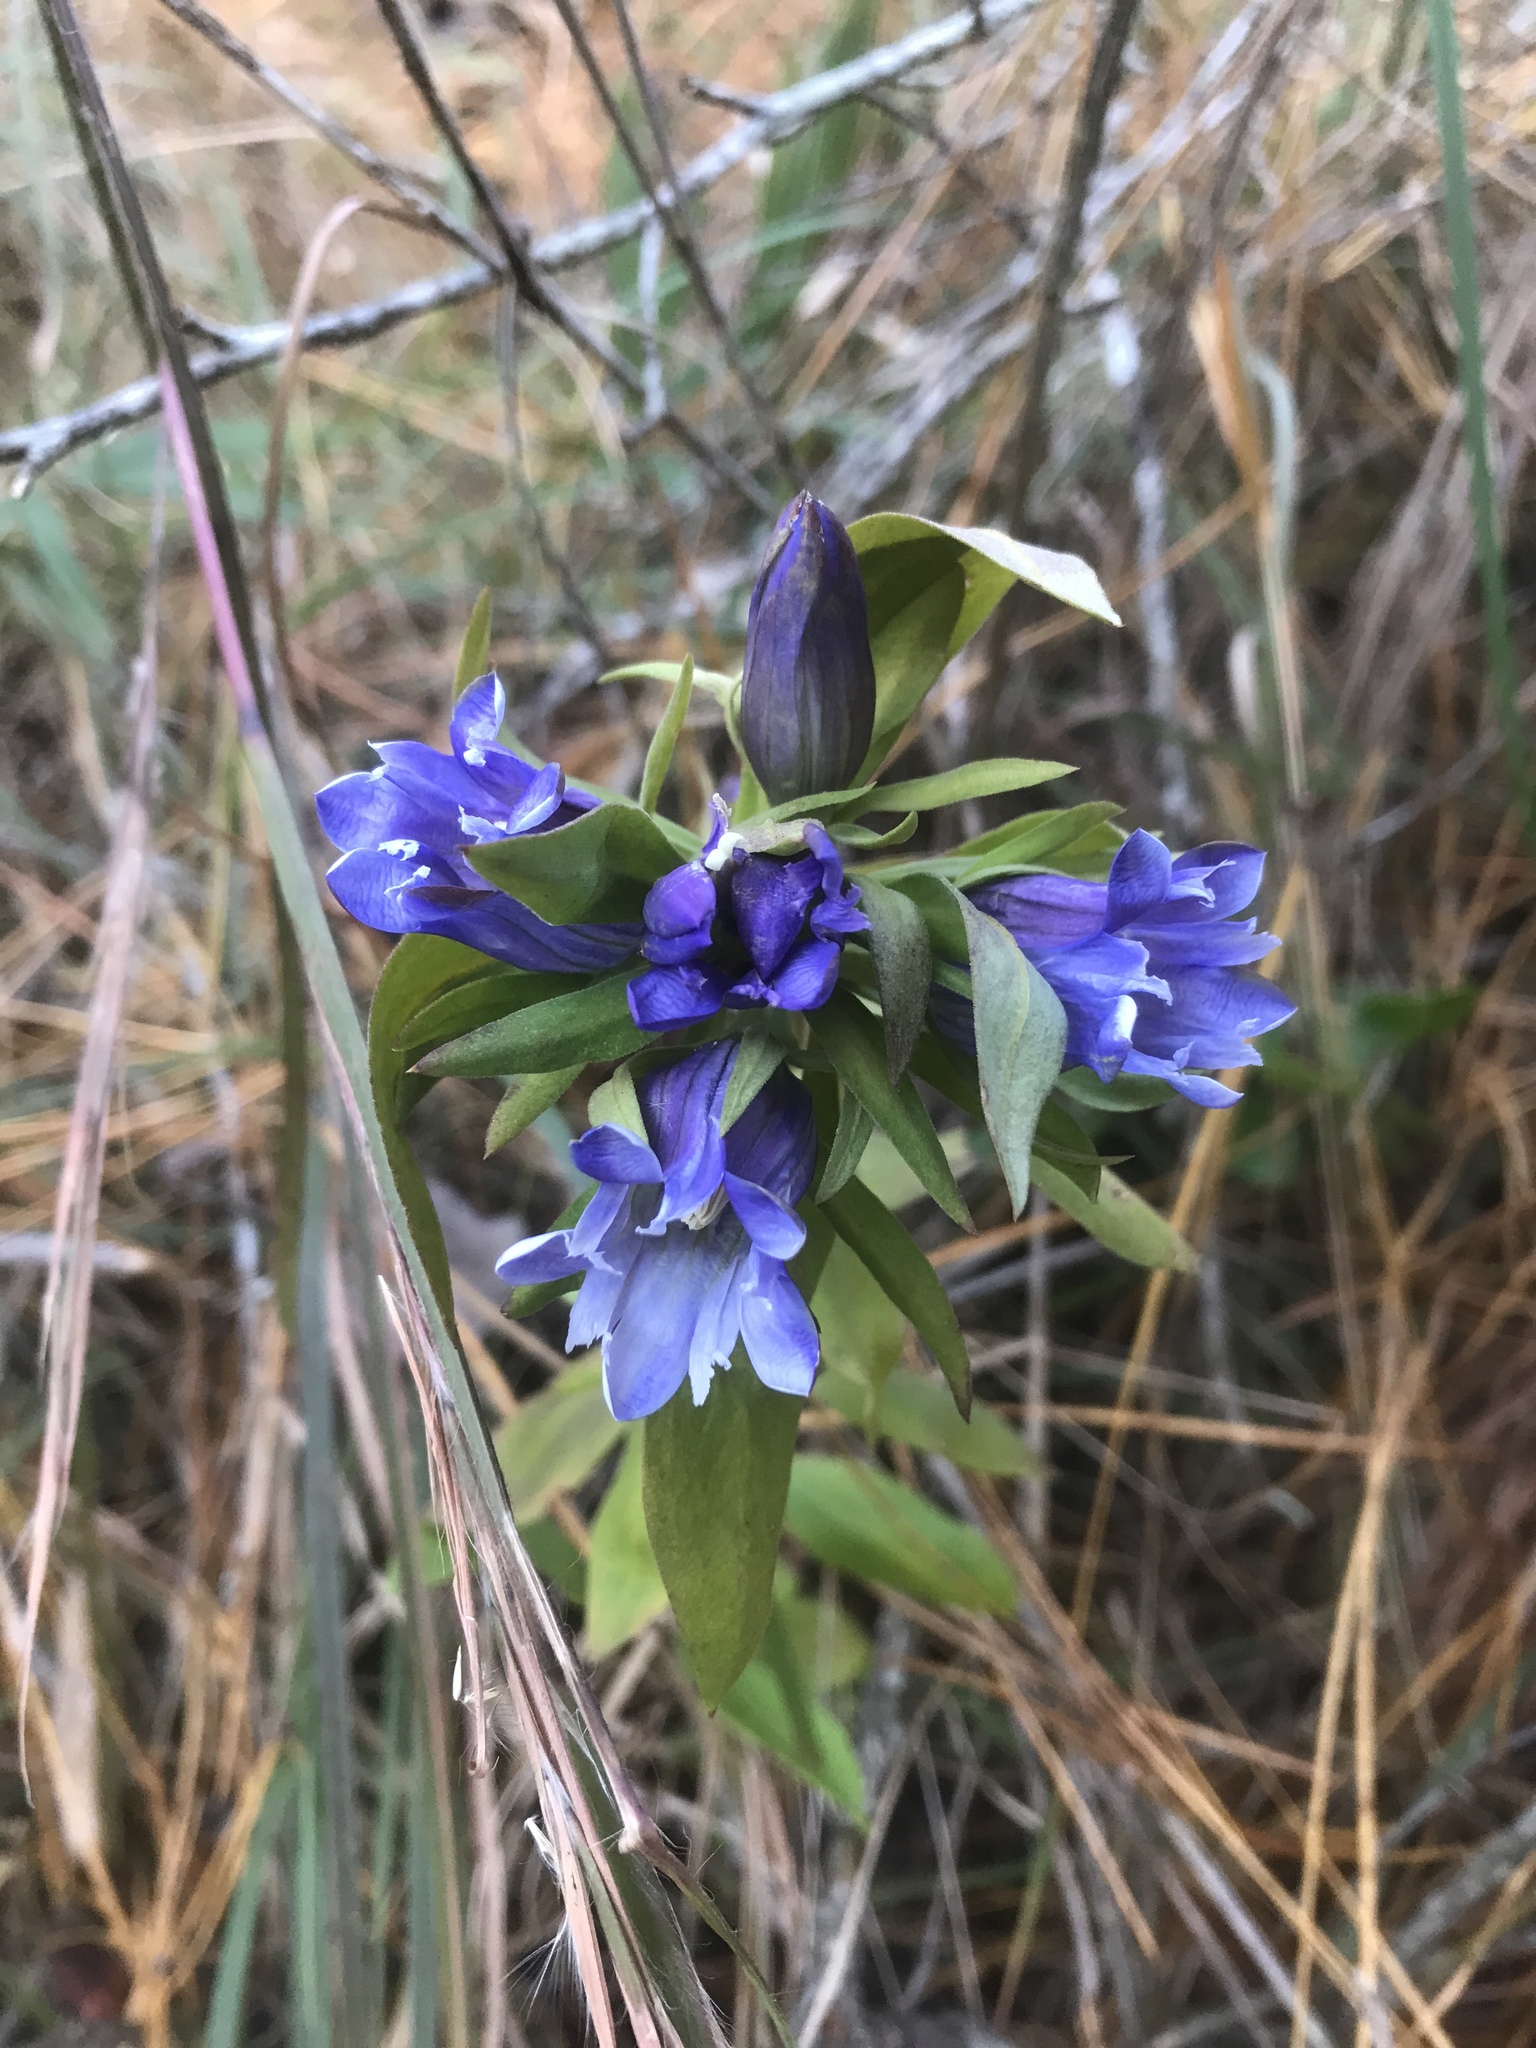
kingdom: Plantae
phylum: Tracheophyta
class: Magnoliopsida
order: Gentianales
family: Gentianaceae
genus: Gentiana
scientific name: Gentiana catesbaei
